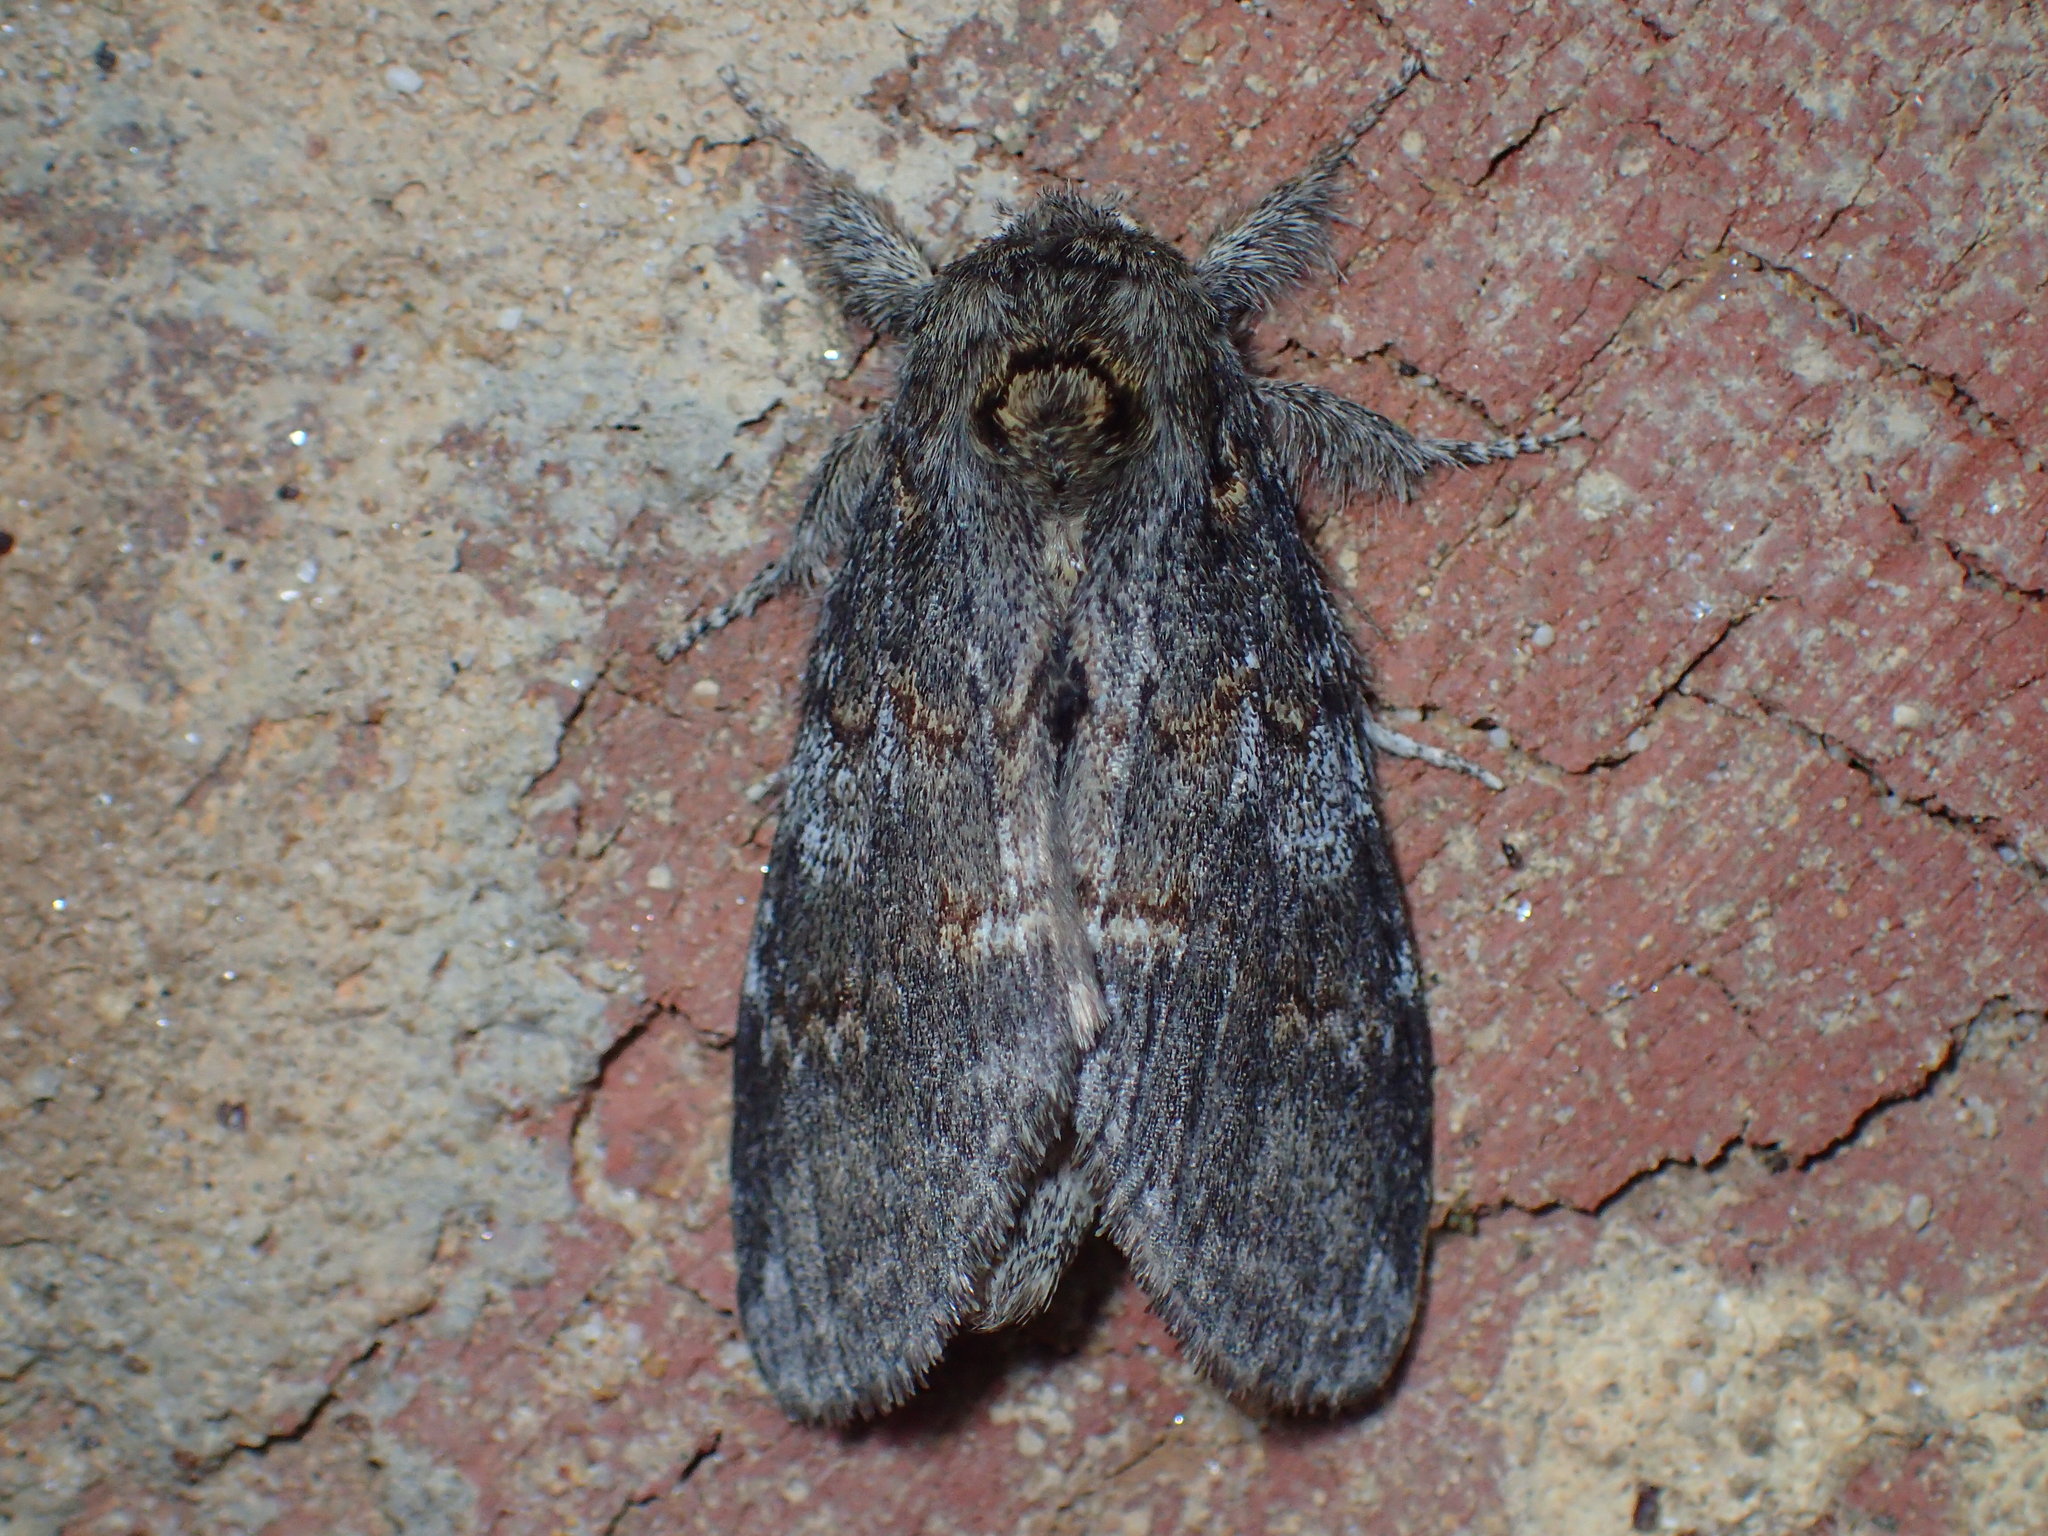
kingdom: Animalia
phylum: Arthropoda
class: Insecta
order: Lepidoptera
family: Notodontidae
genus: Peridea
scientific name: Peridea angulosa
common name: Angulose prominent
